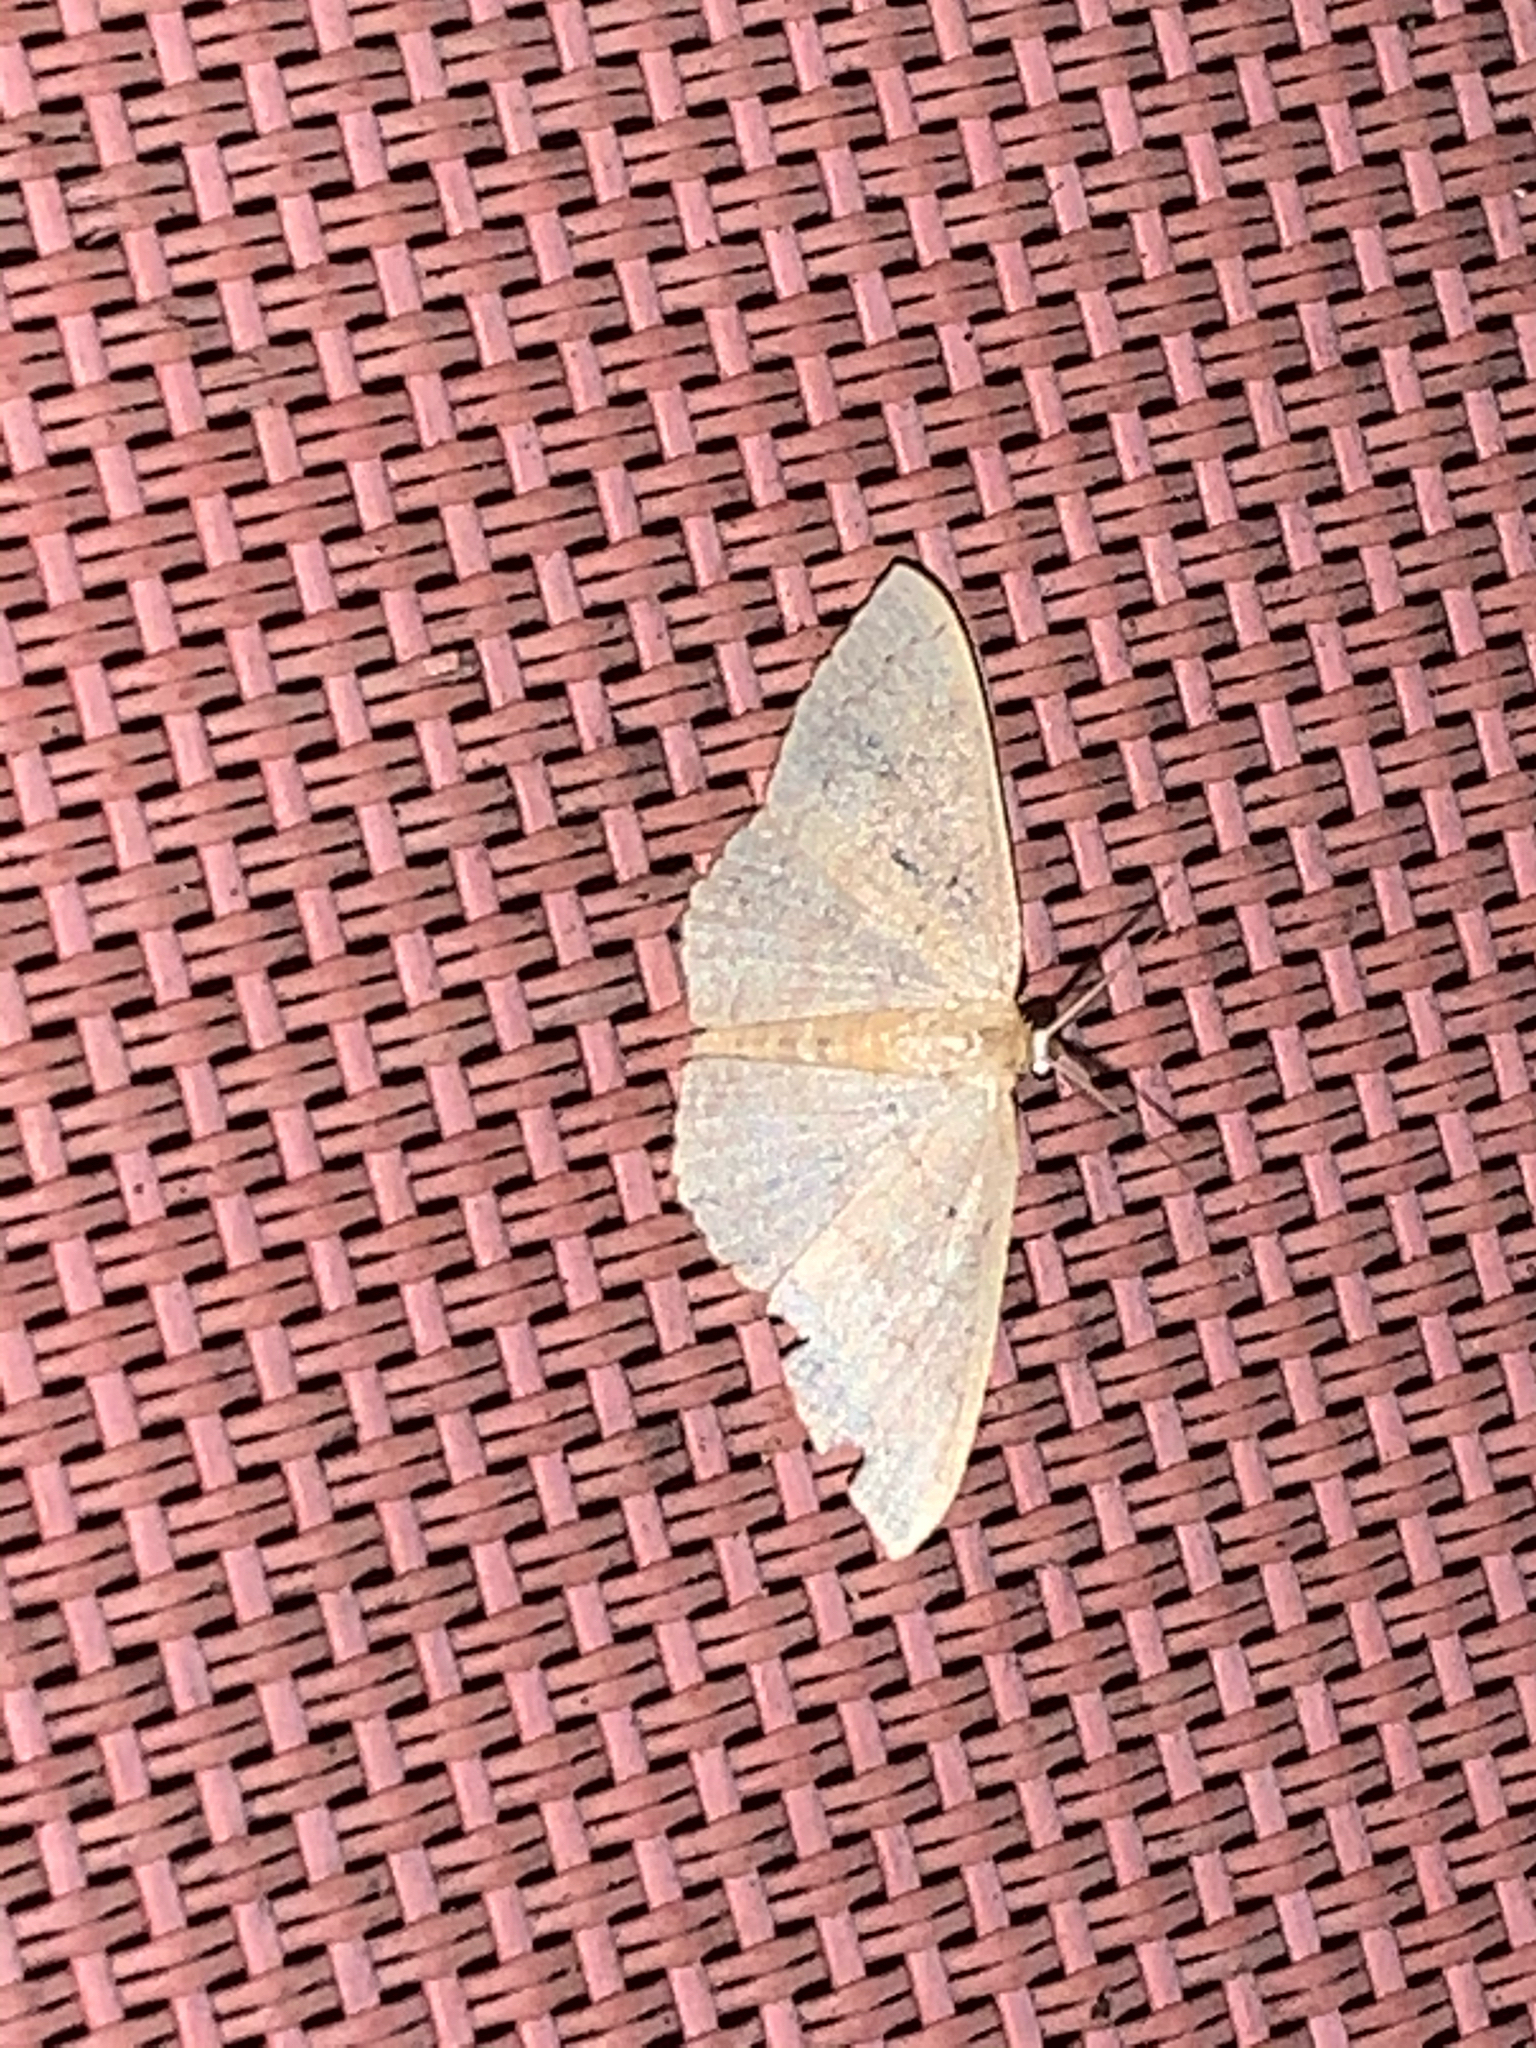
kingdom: Animalia
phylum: Arthropoda
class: Insecta
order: Lepidoptera
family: Geometridae
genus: Pleuroprucha
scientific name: Pleuroprucha insulsaria
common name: Common tan wave
